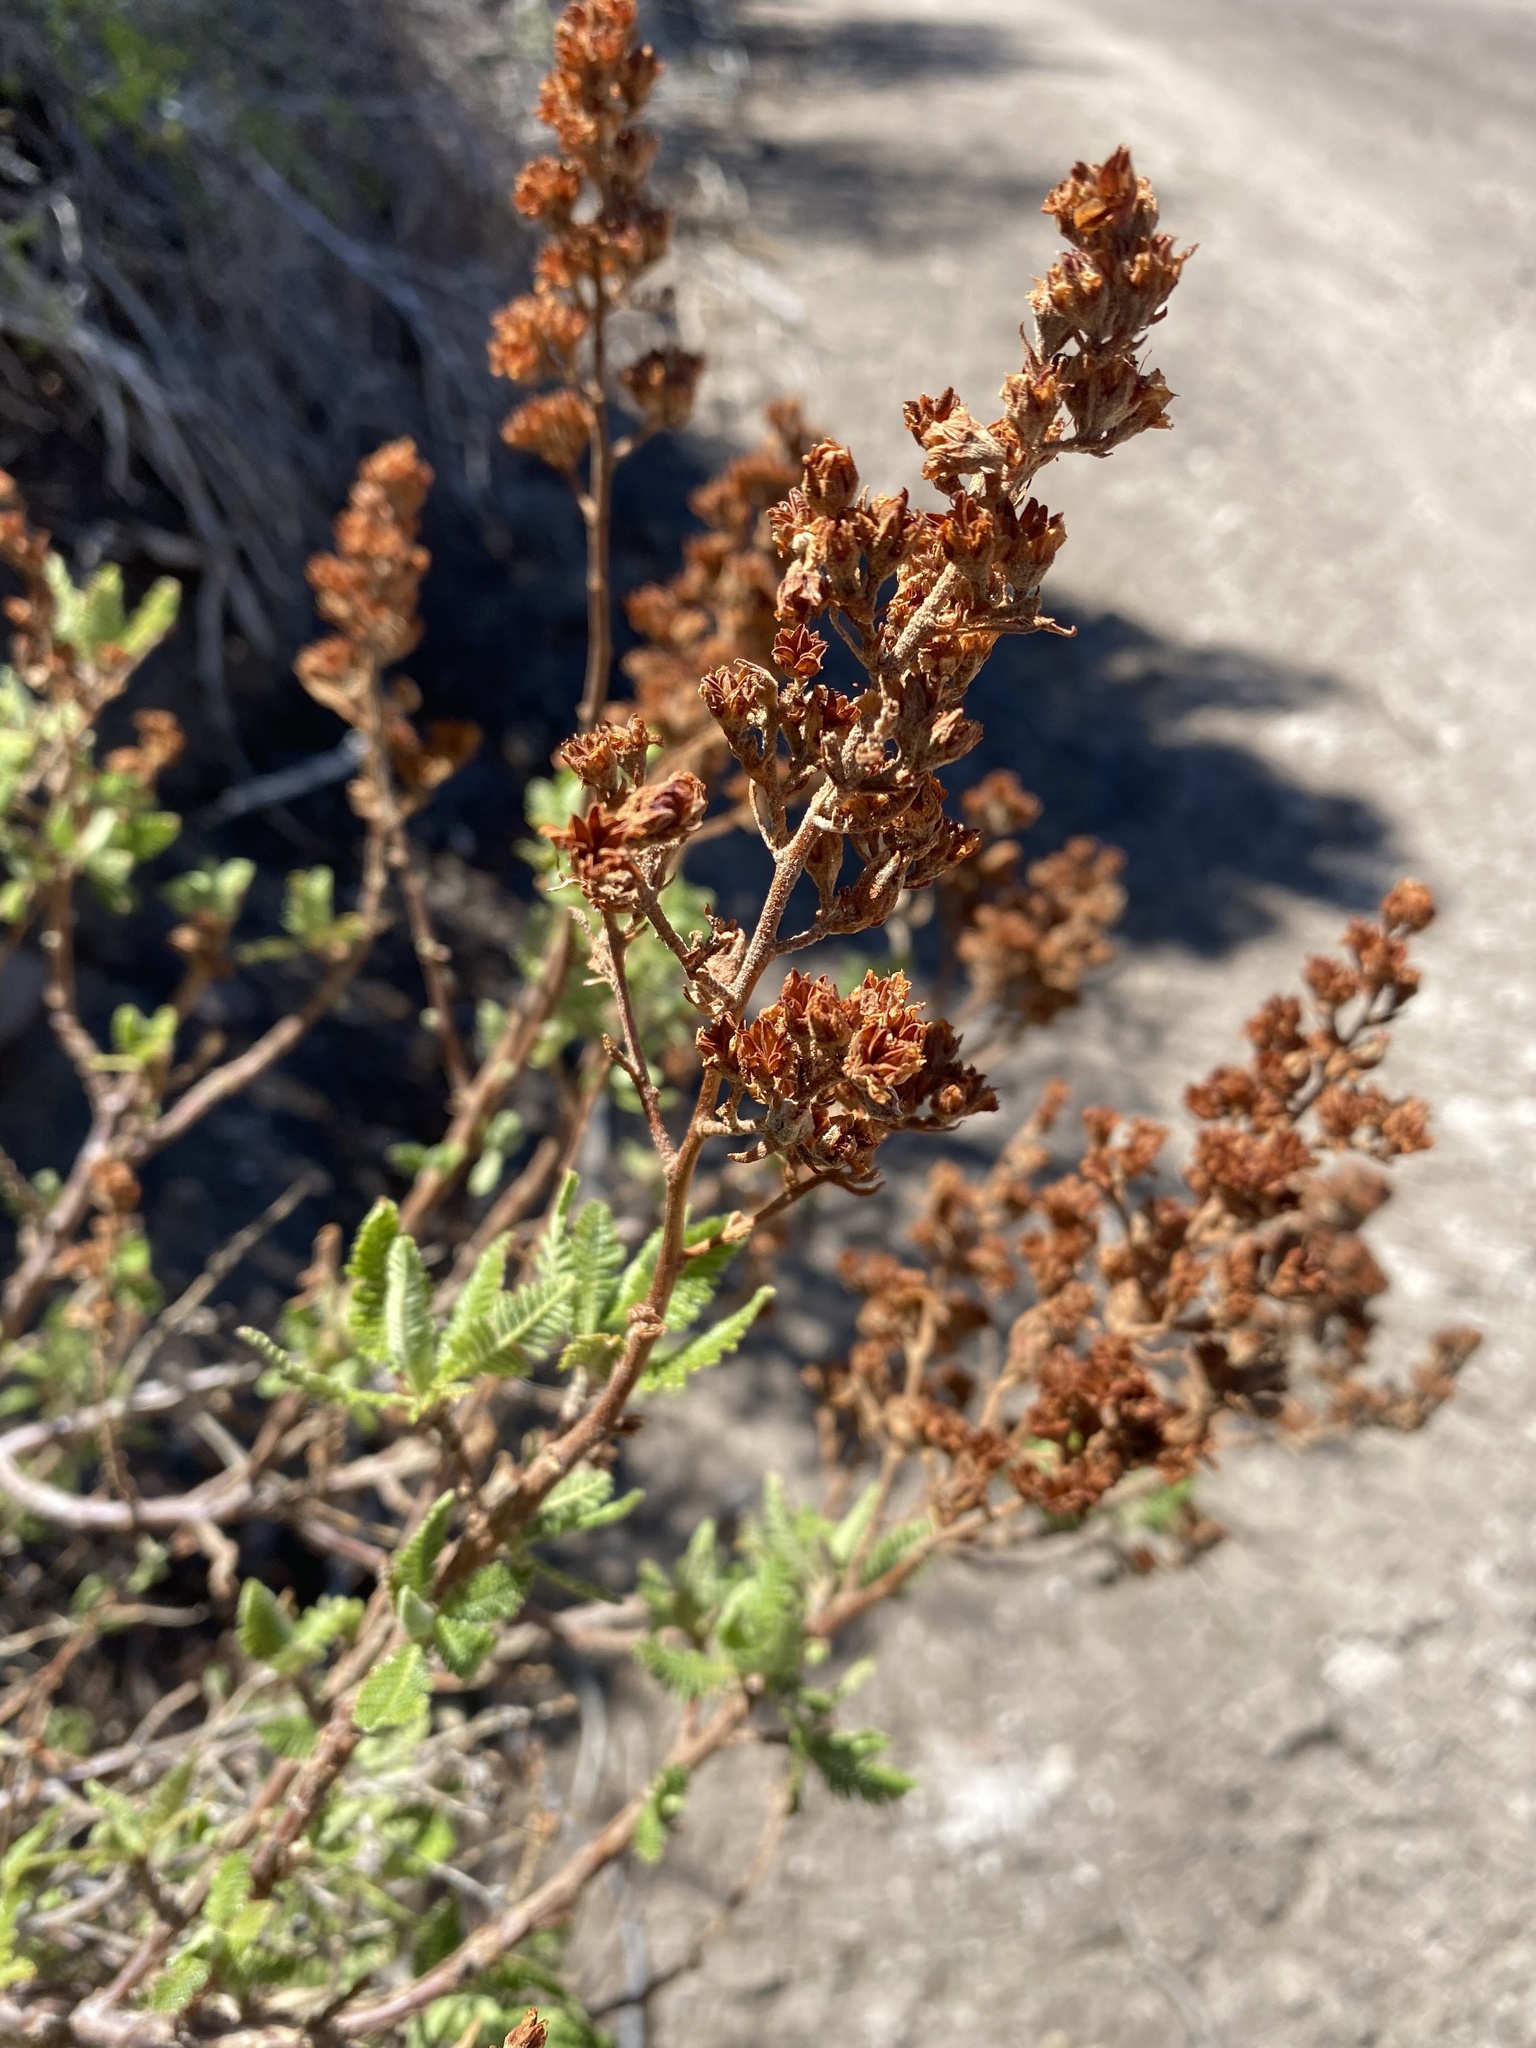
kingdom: Plantae
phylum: Tracheophyta
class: Magnoliopsida
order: Rosales
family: Rosaceae
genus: Chamaebatiaria
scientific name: Chamaebatiaria millefolium
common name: Fernbush
